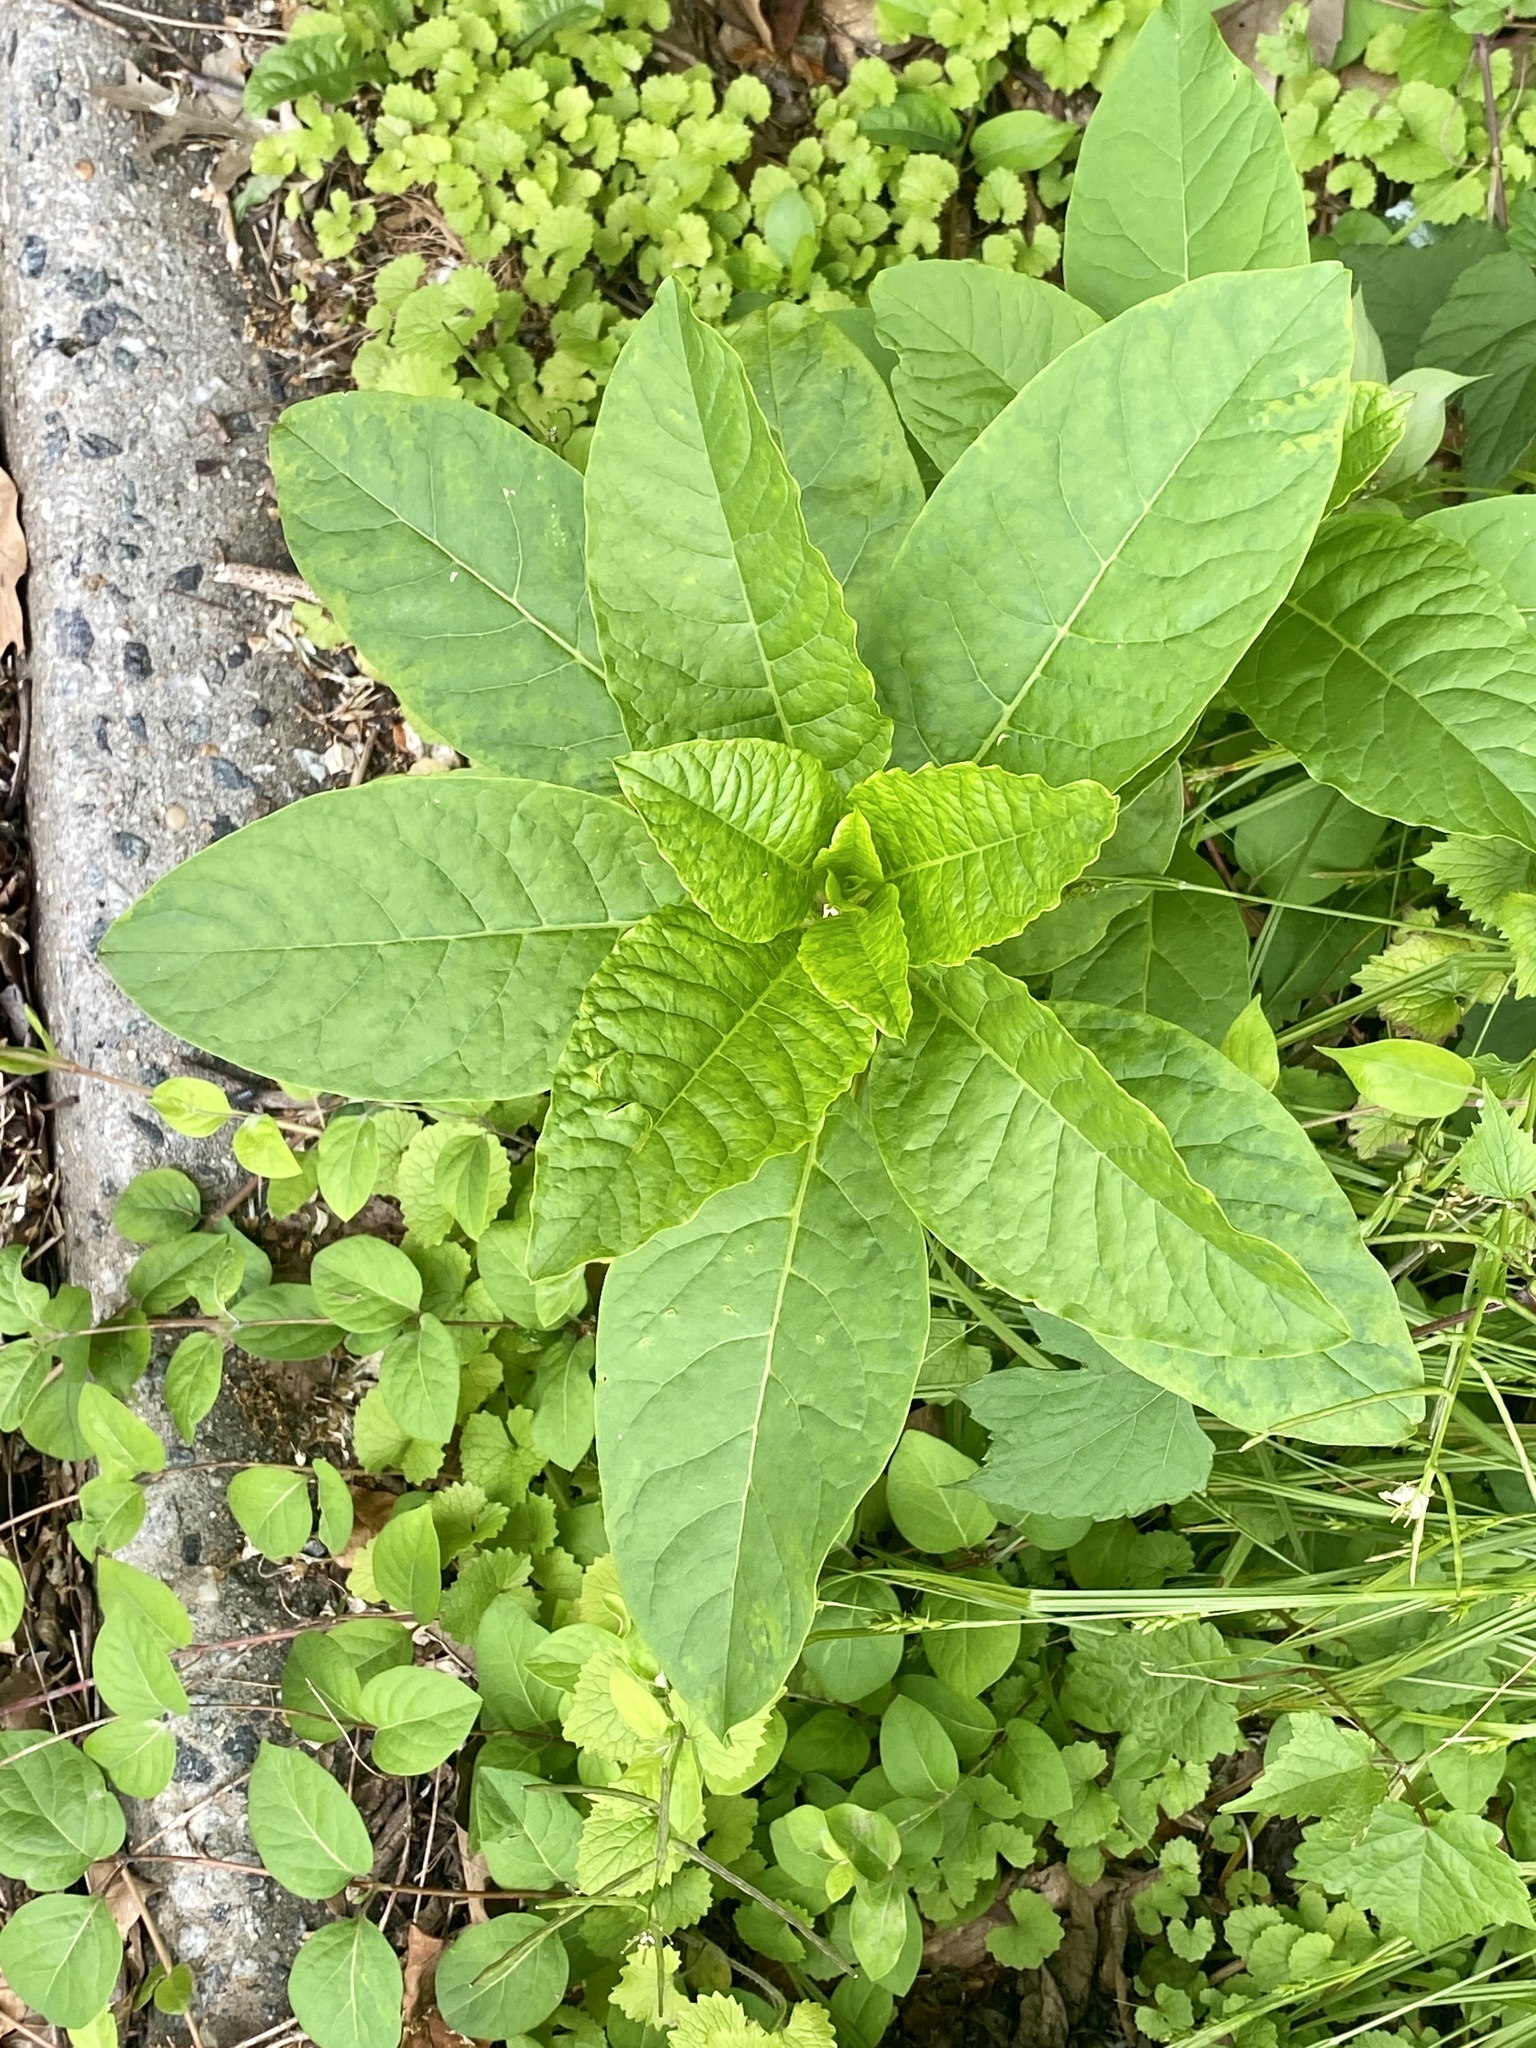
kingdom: Plantae
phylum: Tracheophyta
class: Magnoliopsida
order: Caryophyllales
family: Phytolaccaceae
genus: Phytolacca
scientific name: Phytolacca americana
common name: American pokeweed
